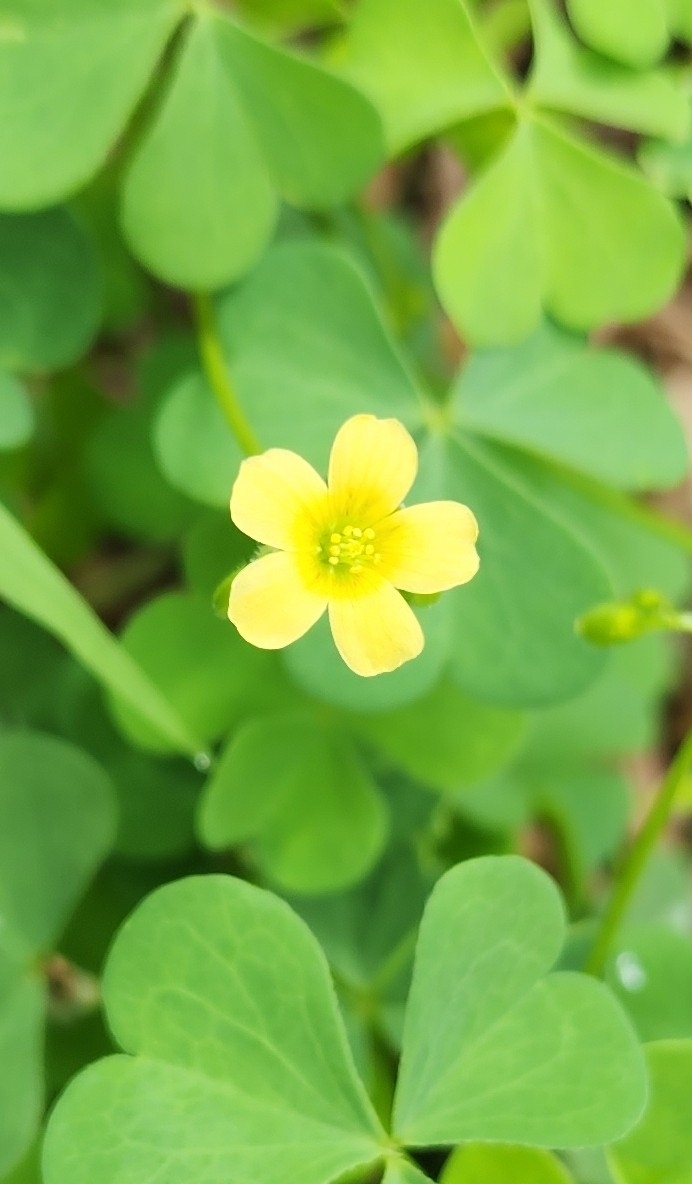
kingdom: Plantae
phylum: Tracheophyta
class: Magnoliopsida
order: Oxalidales
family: Oxalidaceae
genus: Oxalis
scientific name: Oxalis stricta
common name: Upright yellow-sorrel
